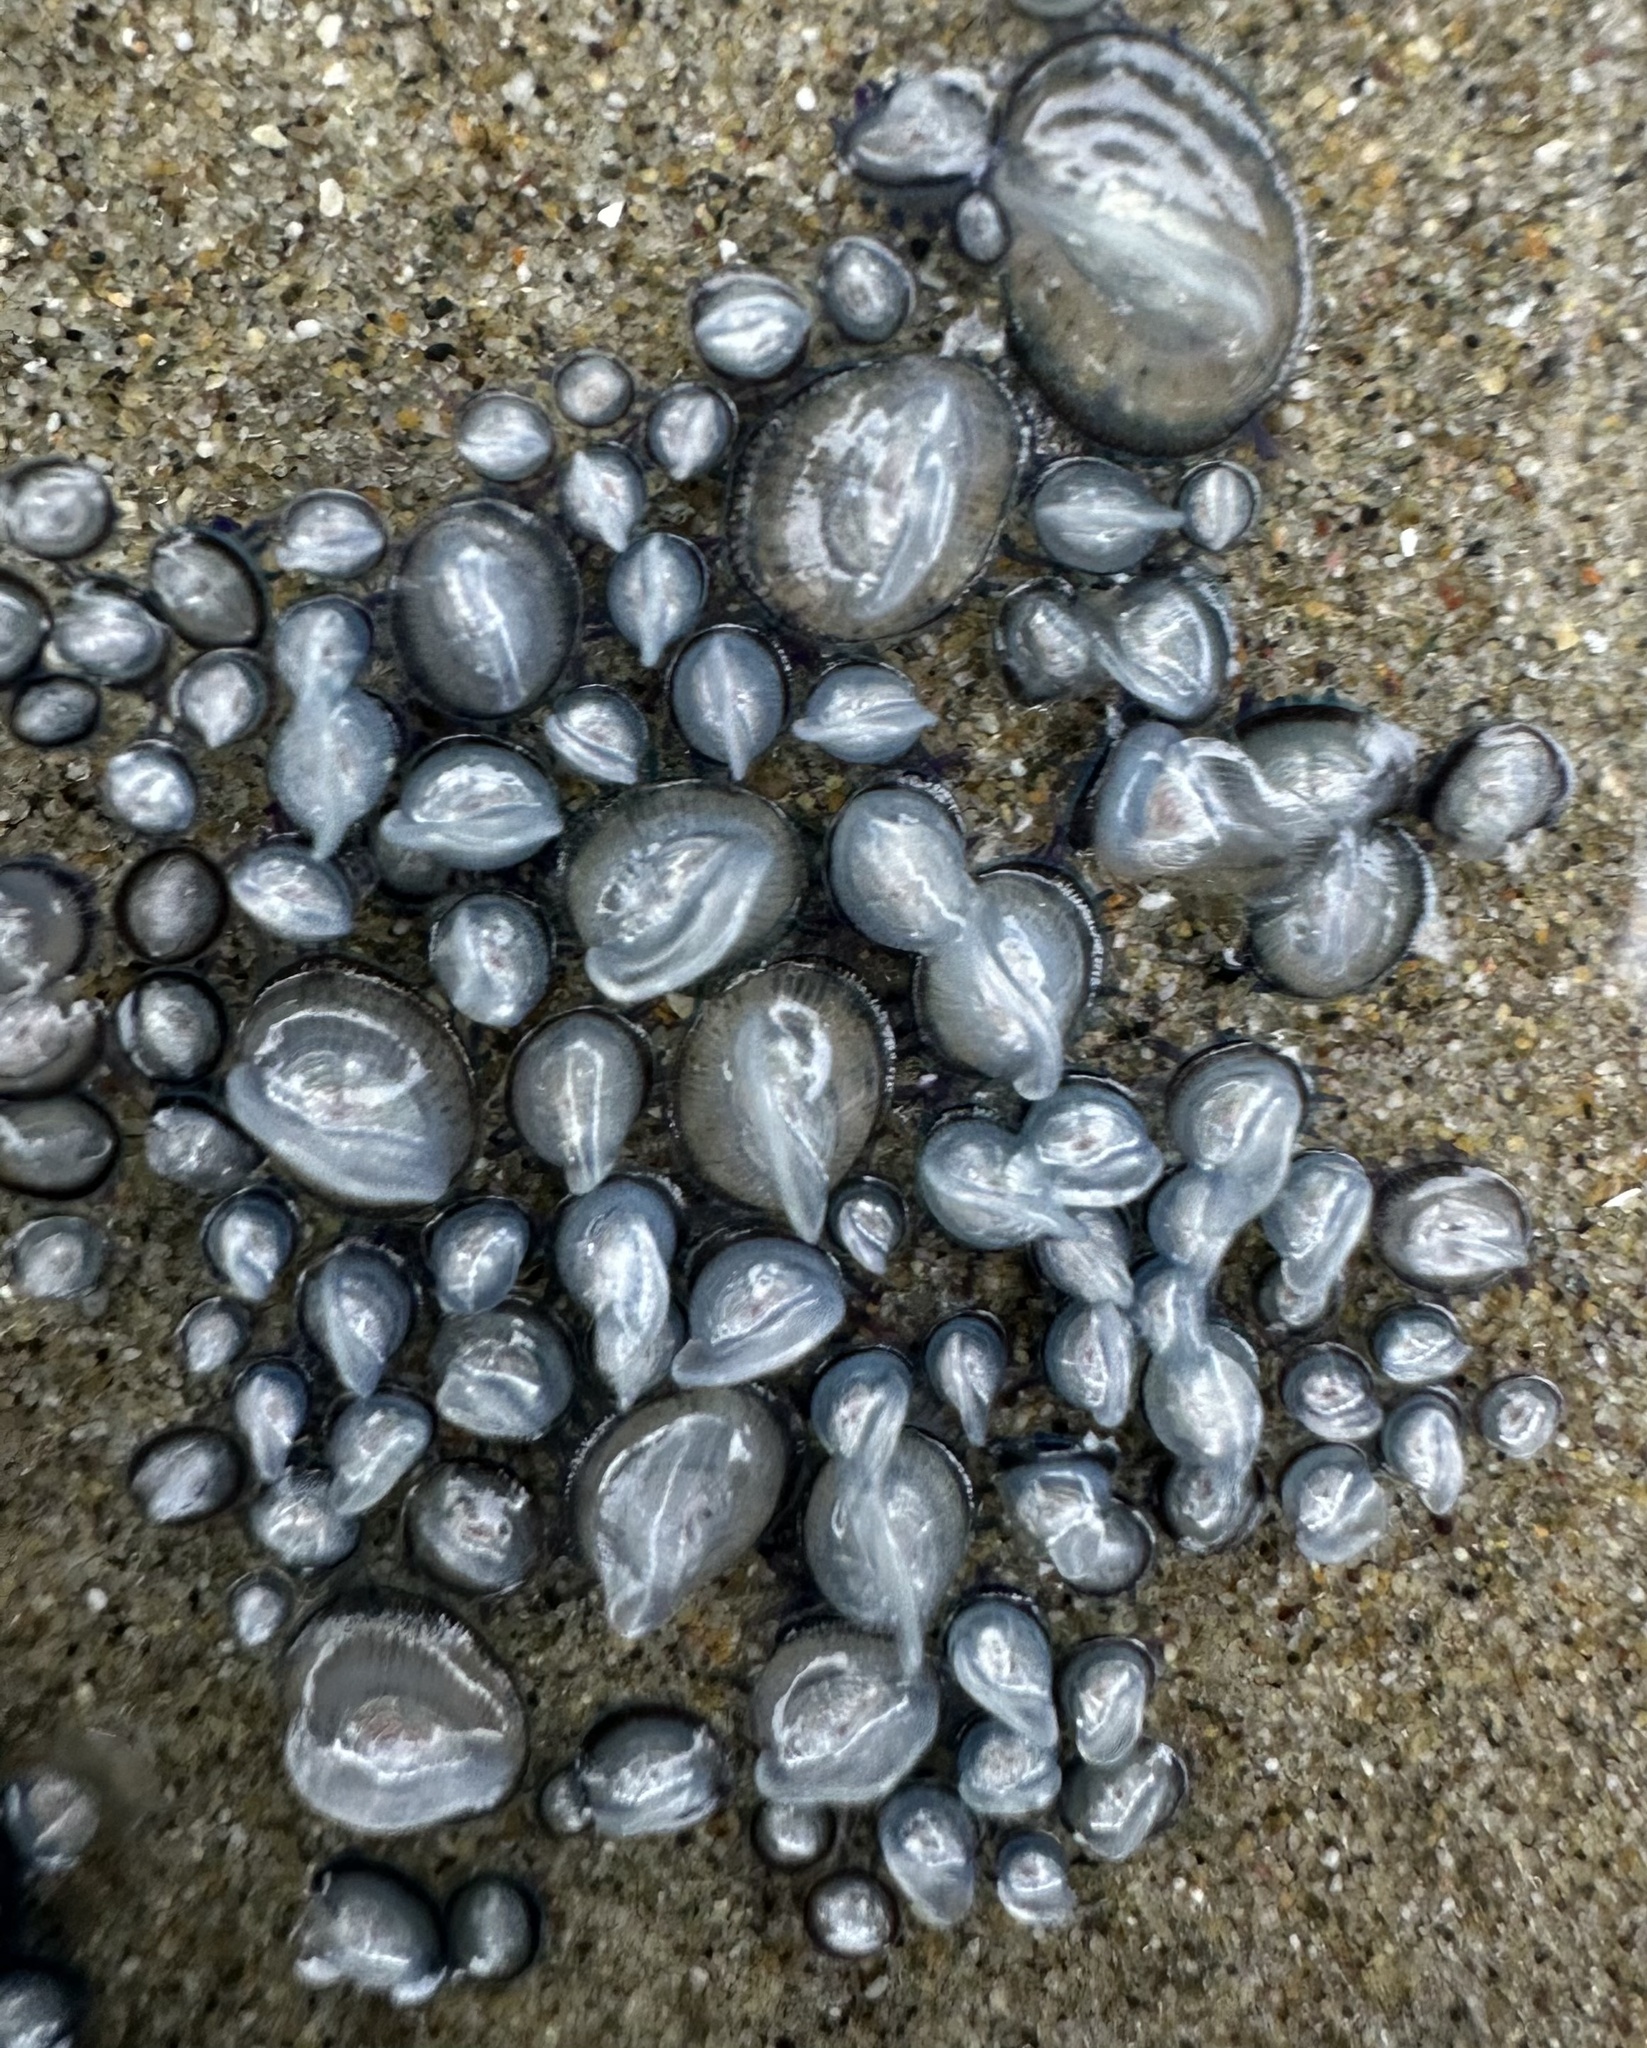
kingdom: Animalia
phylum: Cnidaria
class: Hydrozoa
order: Anthoathecata
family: Porpitidae
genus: Velella
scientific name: Velella velella
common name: By-the-wind-sailor
